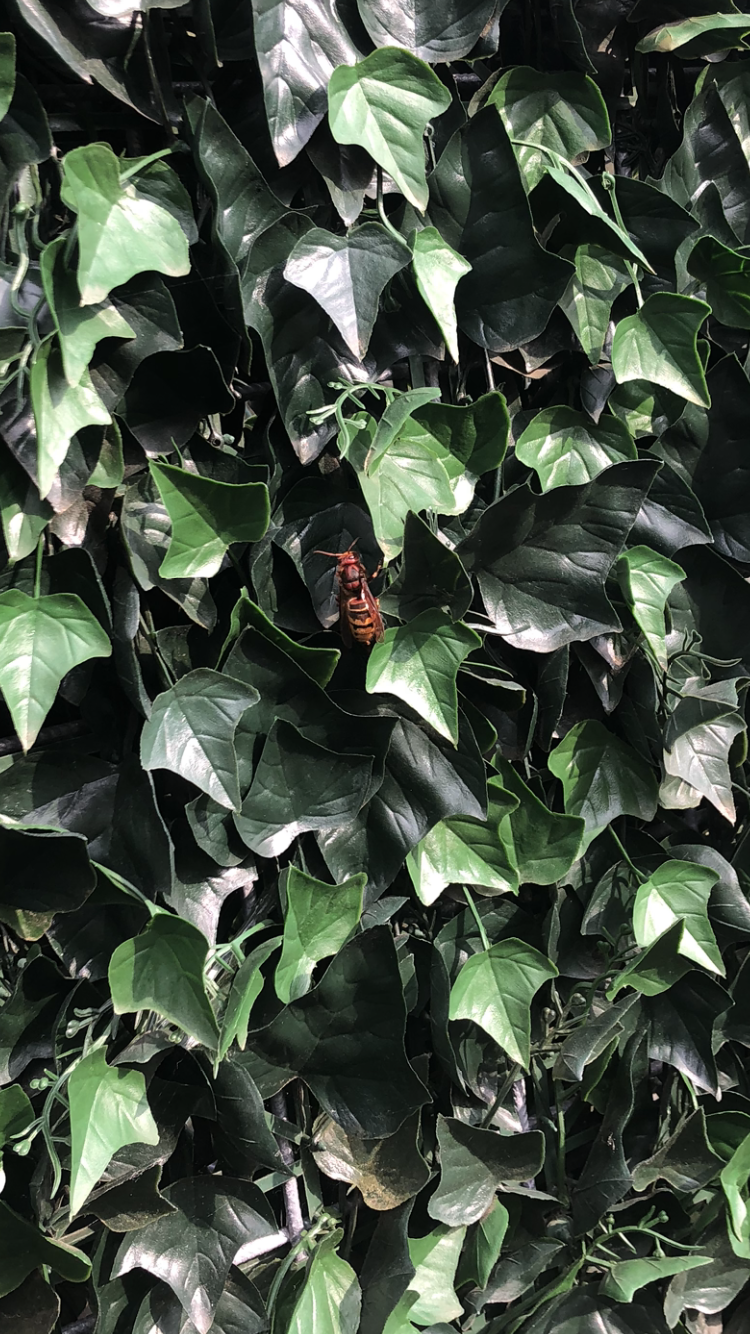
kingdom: Animalia
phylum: Arthropoda
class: Insecta
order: Hymenoptera
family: Vespidae
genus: Vespa
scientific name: Vespa crabro
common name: Hornet
